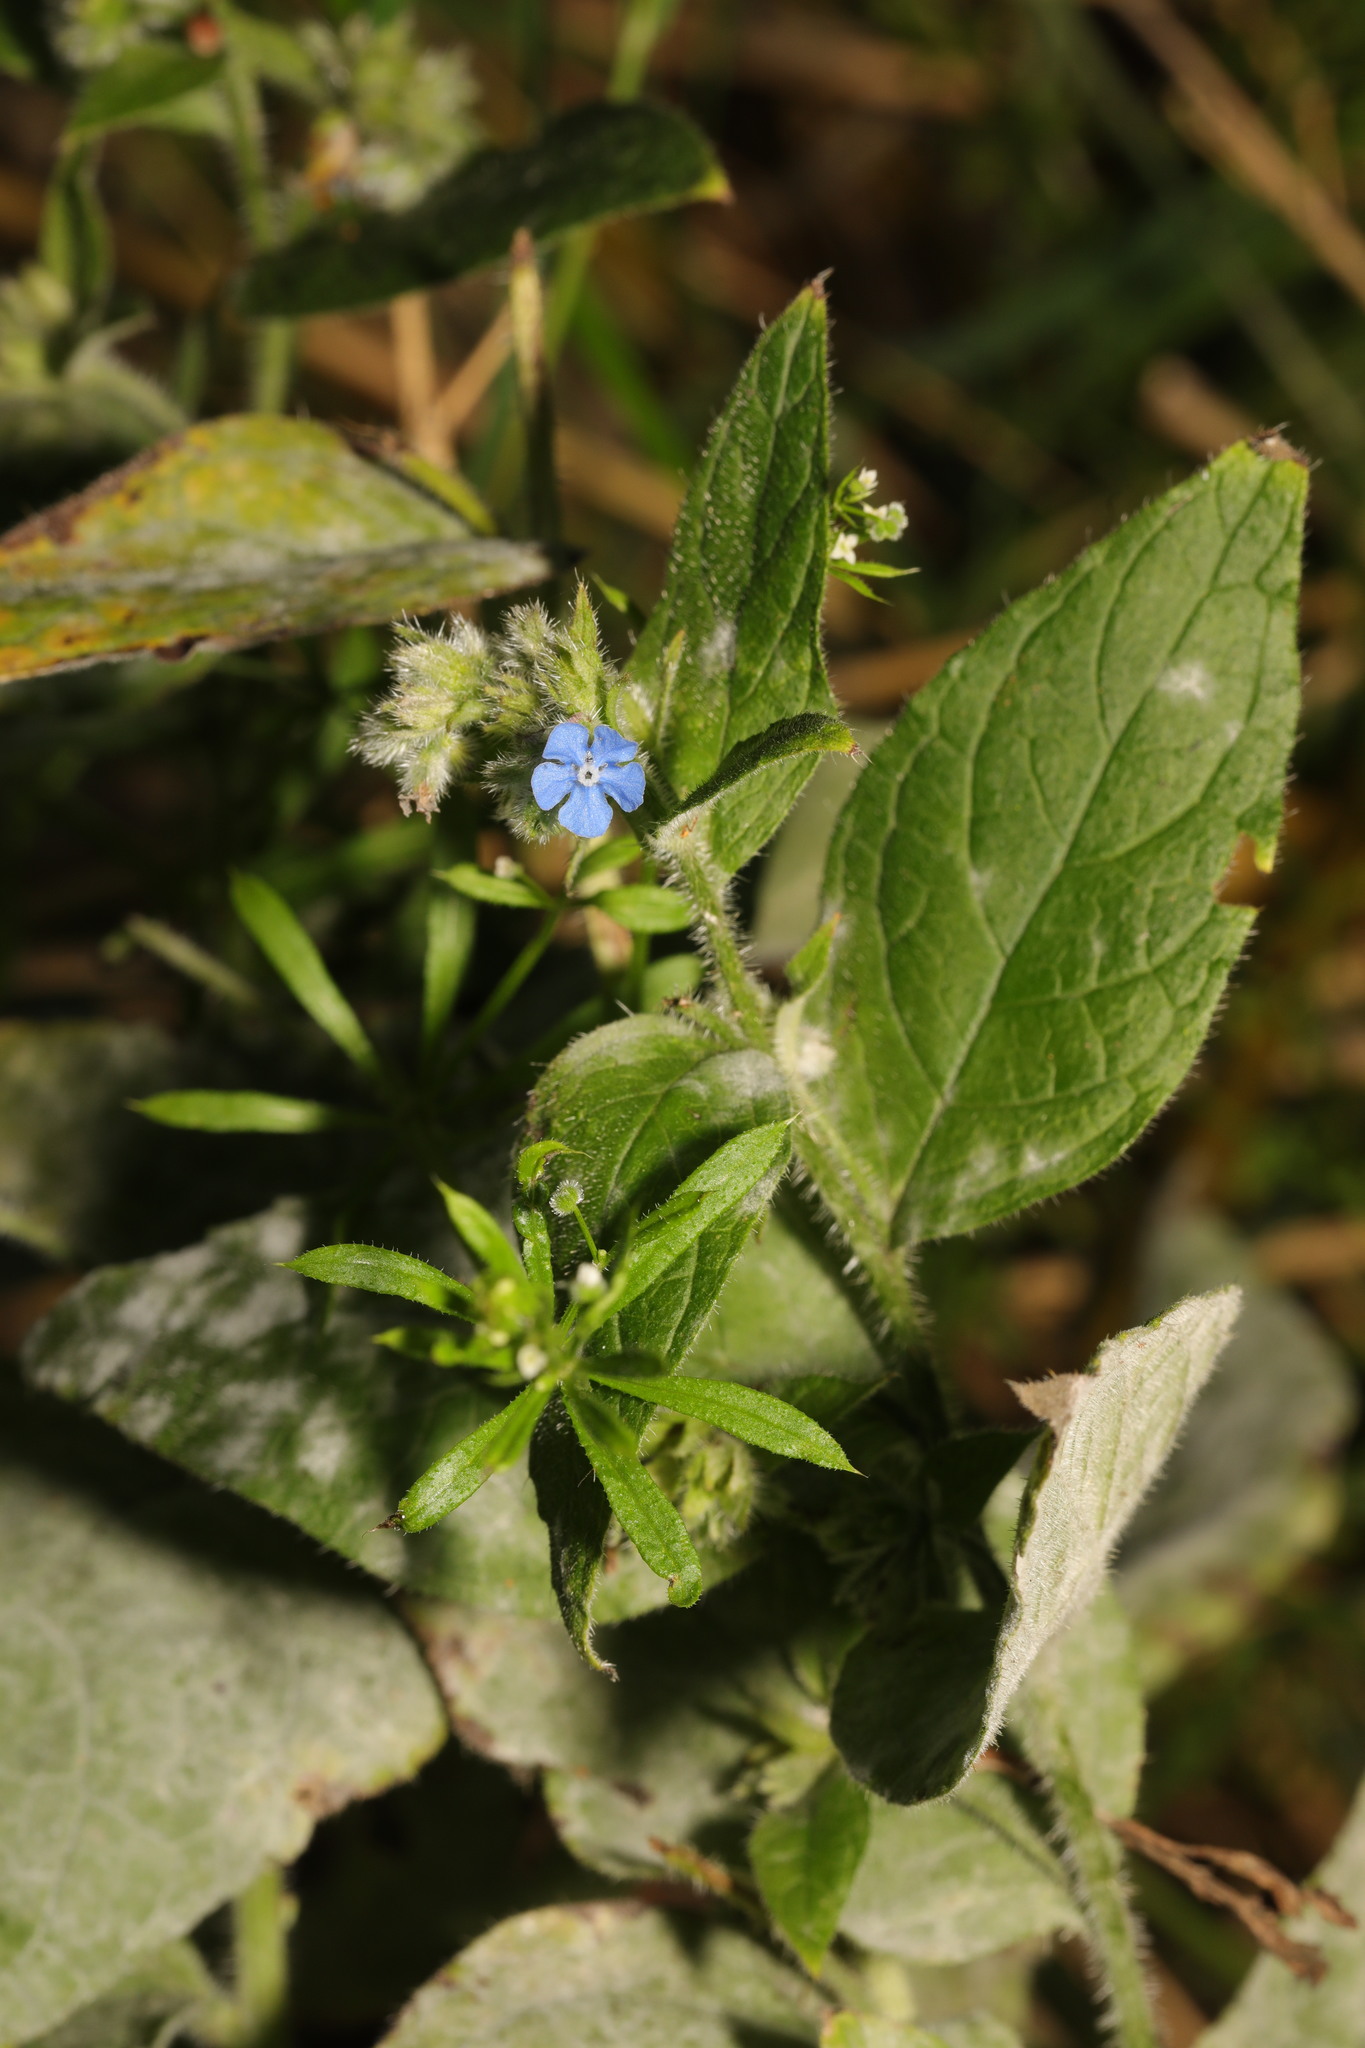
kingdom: Plantae
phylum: Tracheophyta
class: Magnoliopsida
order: Boraginales
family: Boraginaceae
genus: Pentaglottis
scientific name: Pentaglottis sempervirens
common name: Green alkanet
